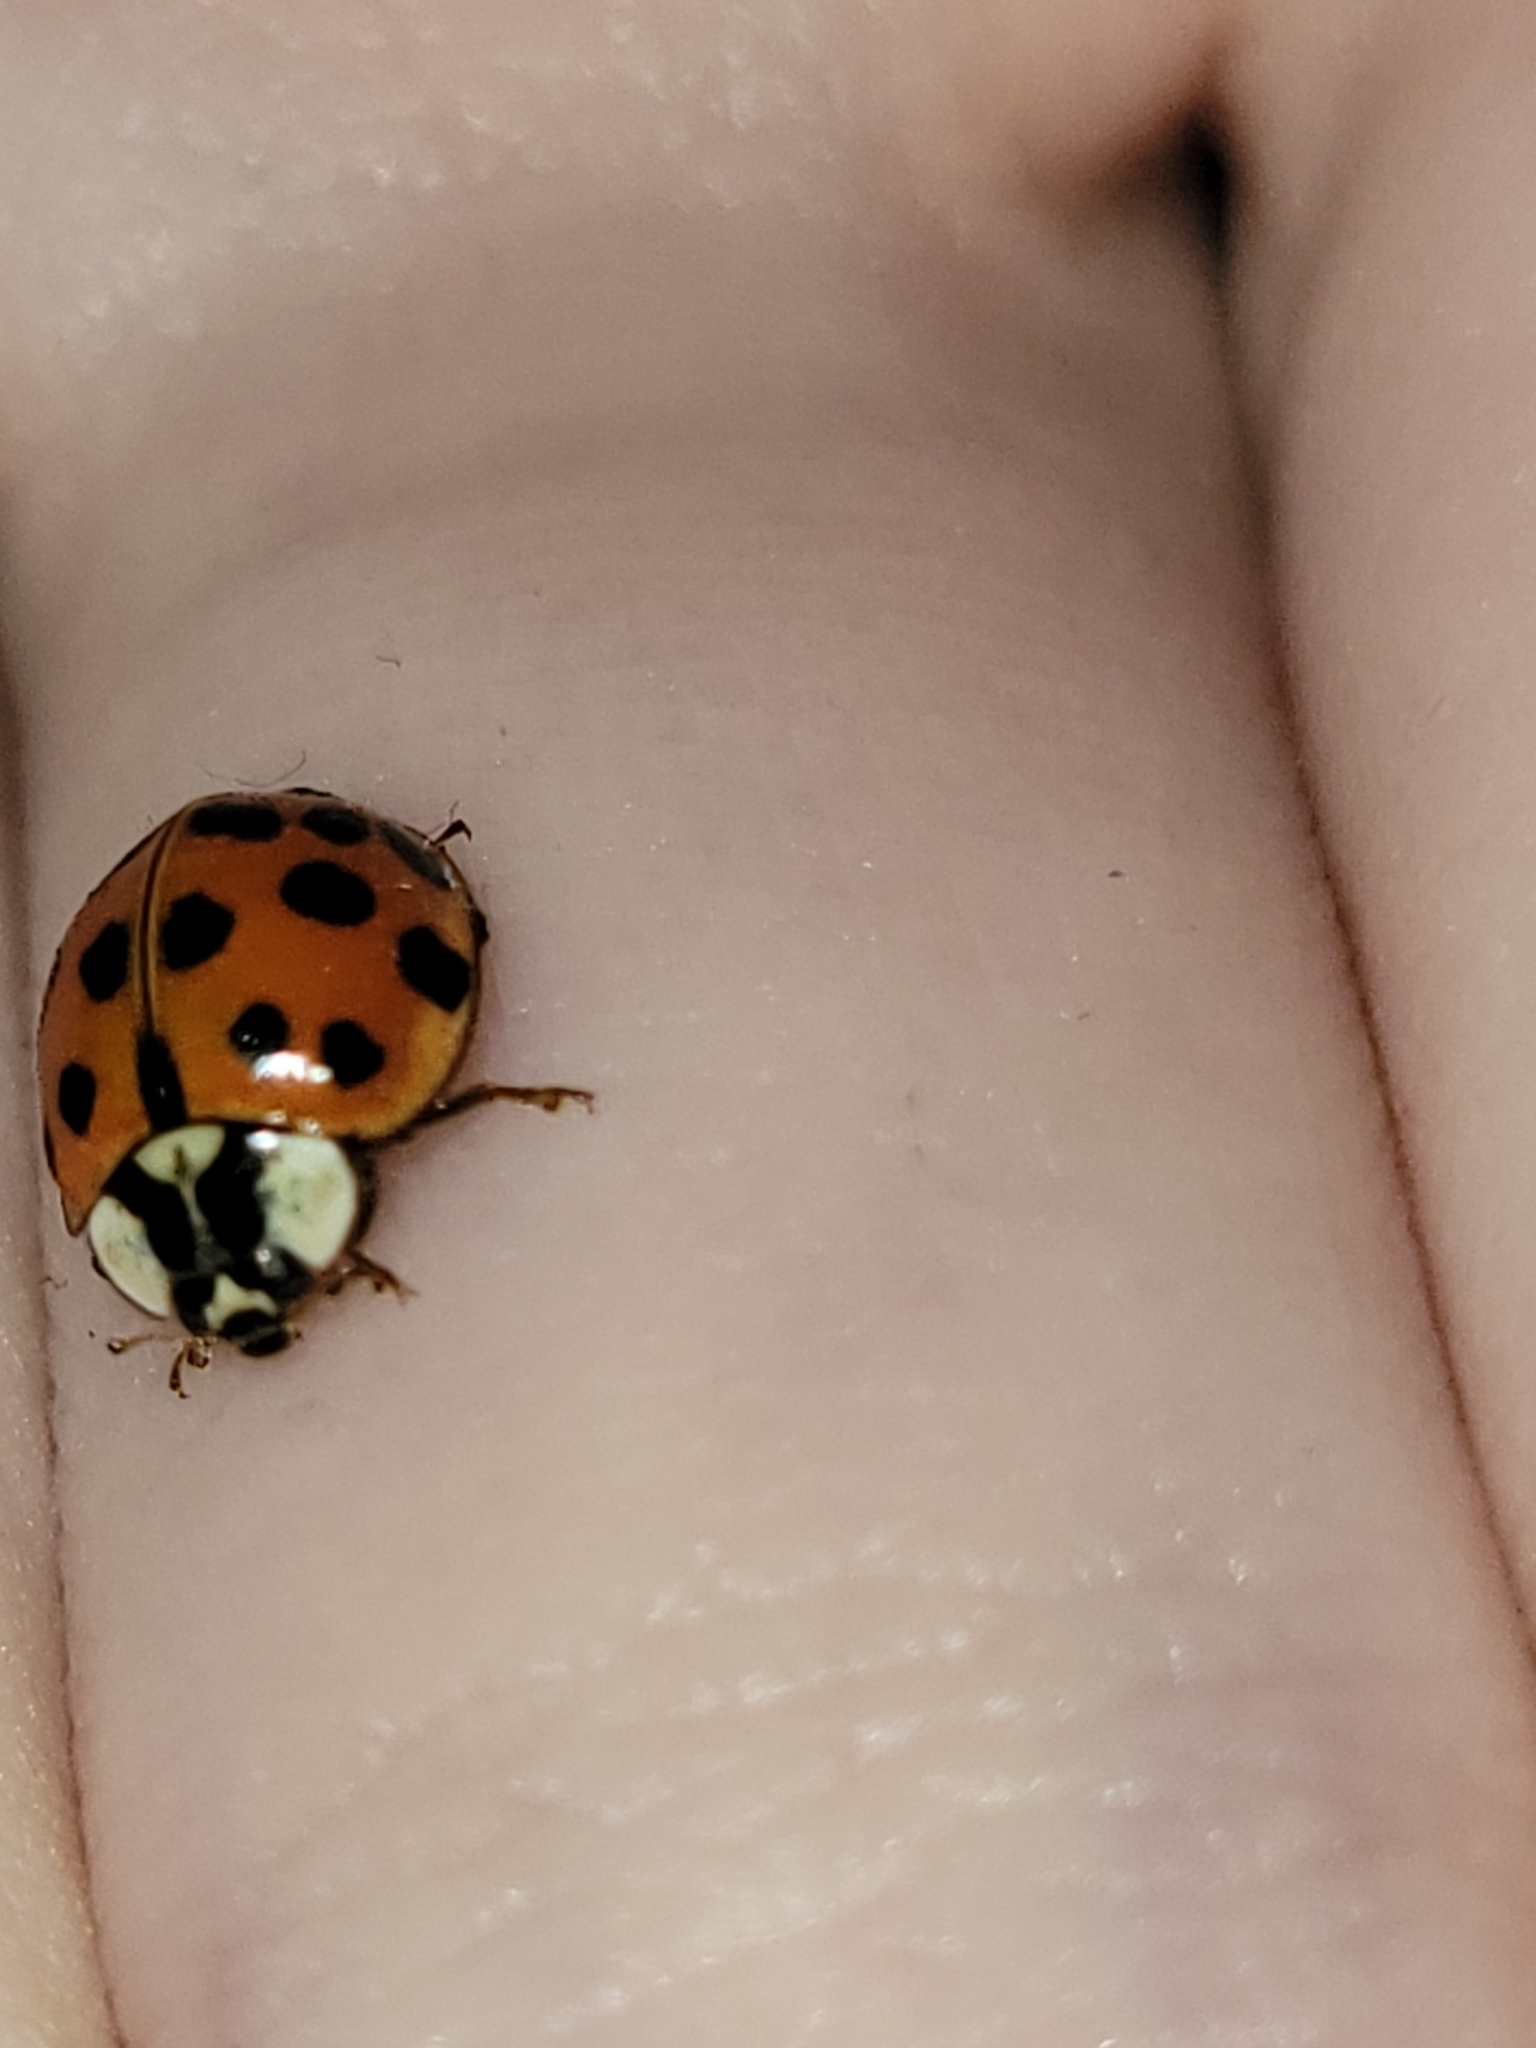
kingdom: Animalia
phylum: Arthropoda
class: Insecta
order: Coleoptera
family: Coccinellidae
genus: Harmonia
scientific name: Harmonia axyridis
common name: Harlequin ladybird
